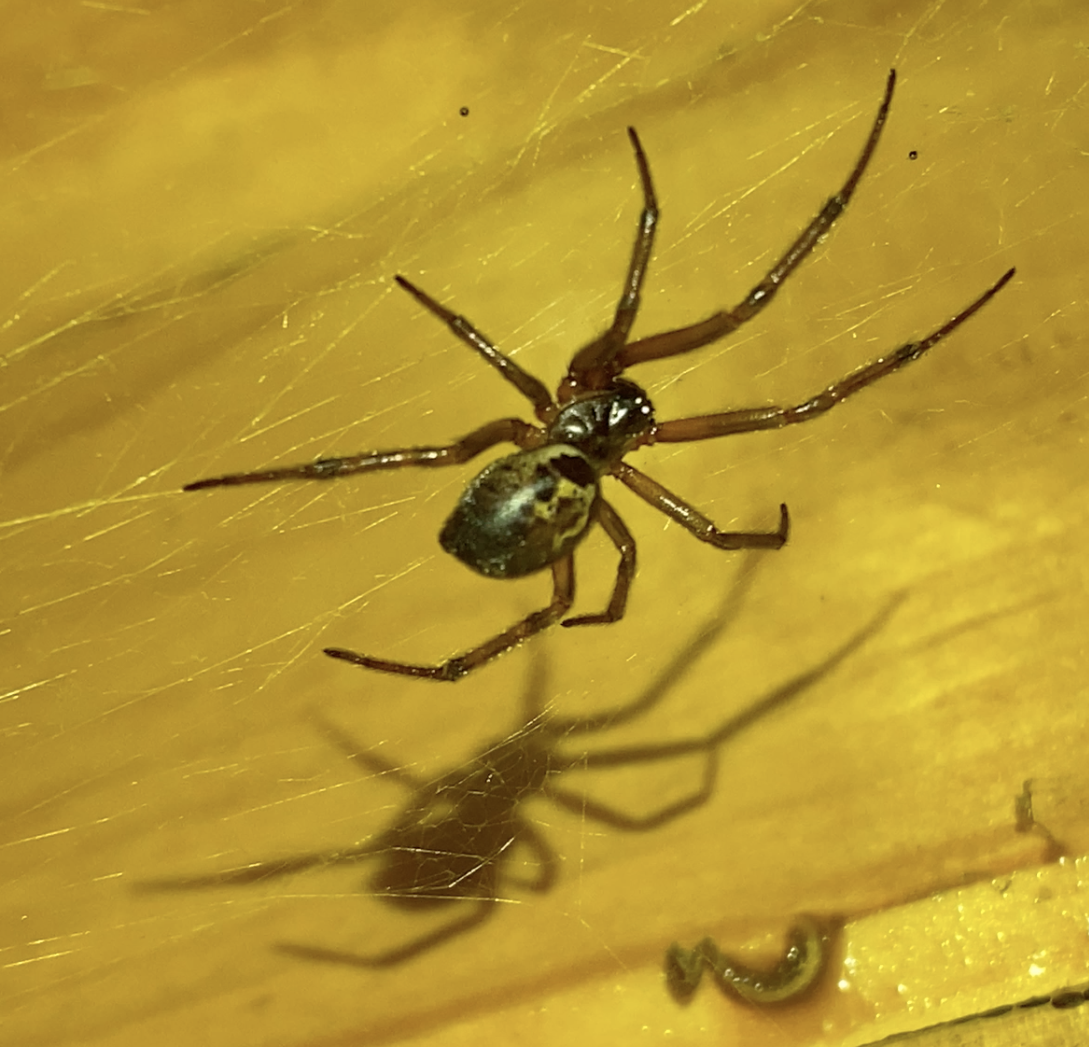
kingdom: Animalia
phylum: Arthropoda
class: Arachnida
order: Araneae
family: Theridiidae
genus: Steatoda
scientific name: Steatoda nobilis
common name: Cobweb weaver
